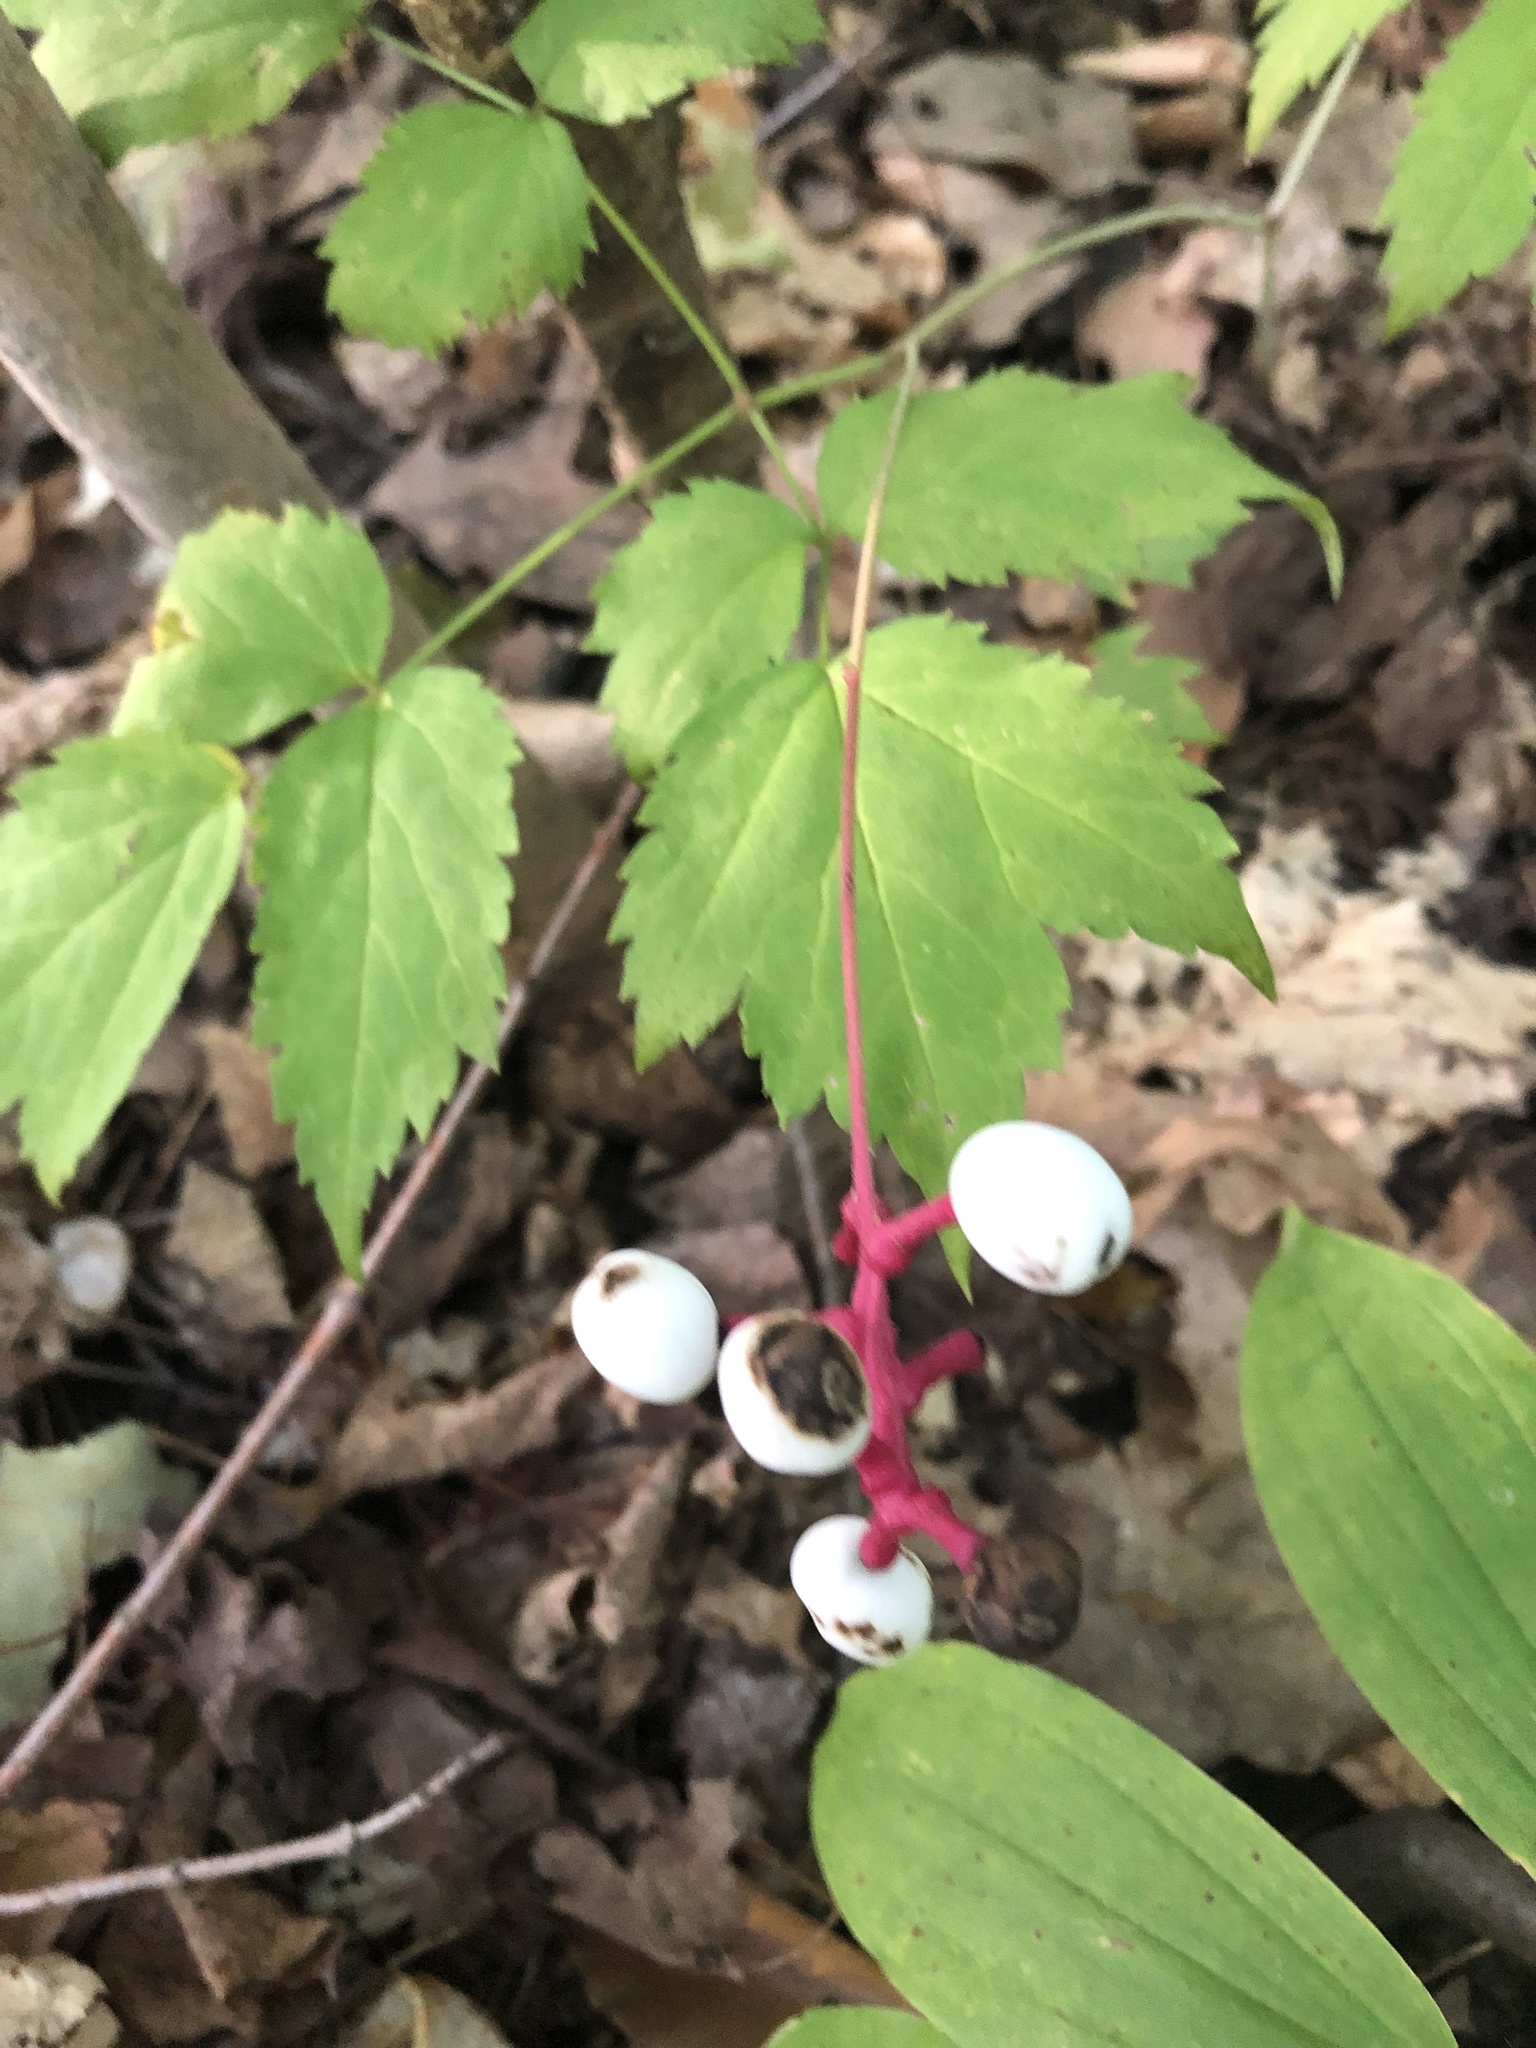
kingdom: Plantae
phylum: Tracheophyta
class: Magnoliopsida
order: Ranunculales
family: Ranunculaceae
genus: Actaea
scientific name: Actaea pachypoda
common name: Doll's-eyes
